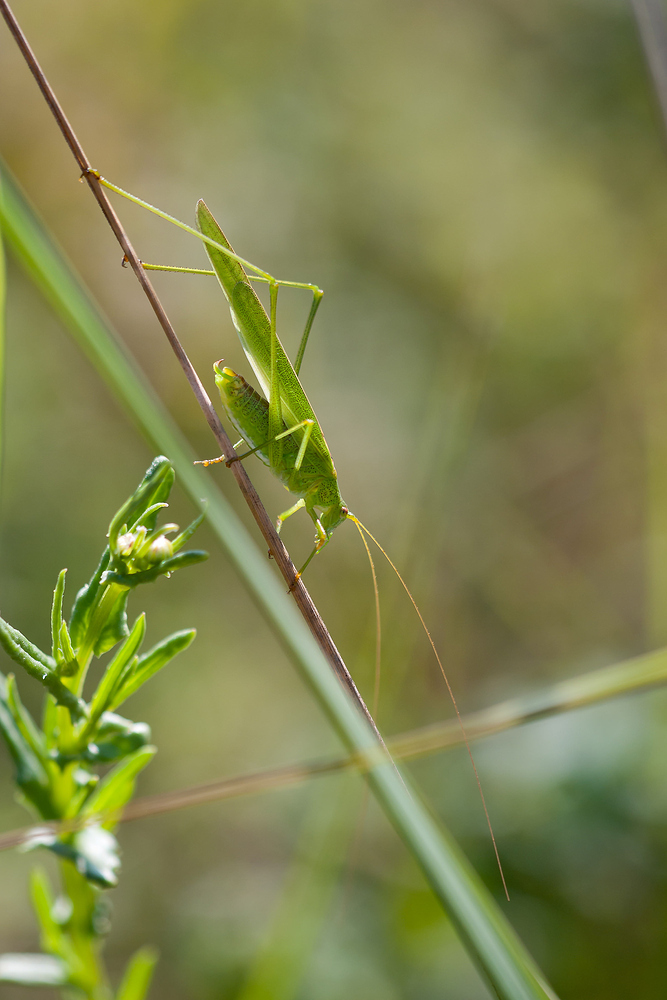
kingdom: Animalia
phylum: Arthropoda
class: Insecta
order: Orthoptera
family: Tettigoniidae
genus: Phaneroptera
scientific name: Phaneroptera falcata
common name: Sickle-bearing bush-cricket
